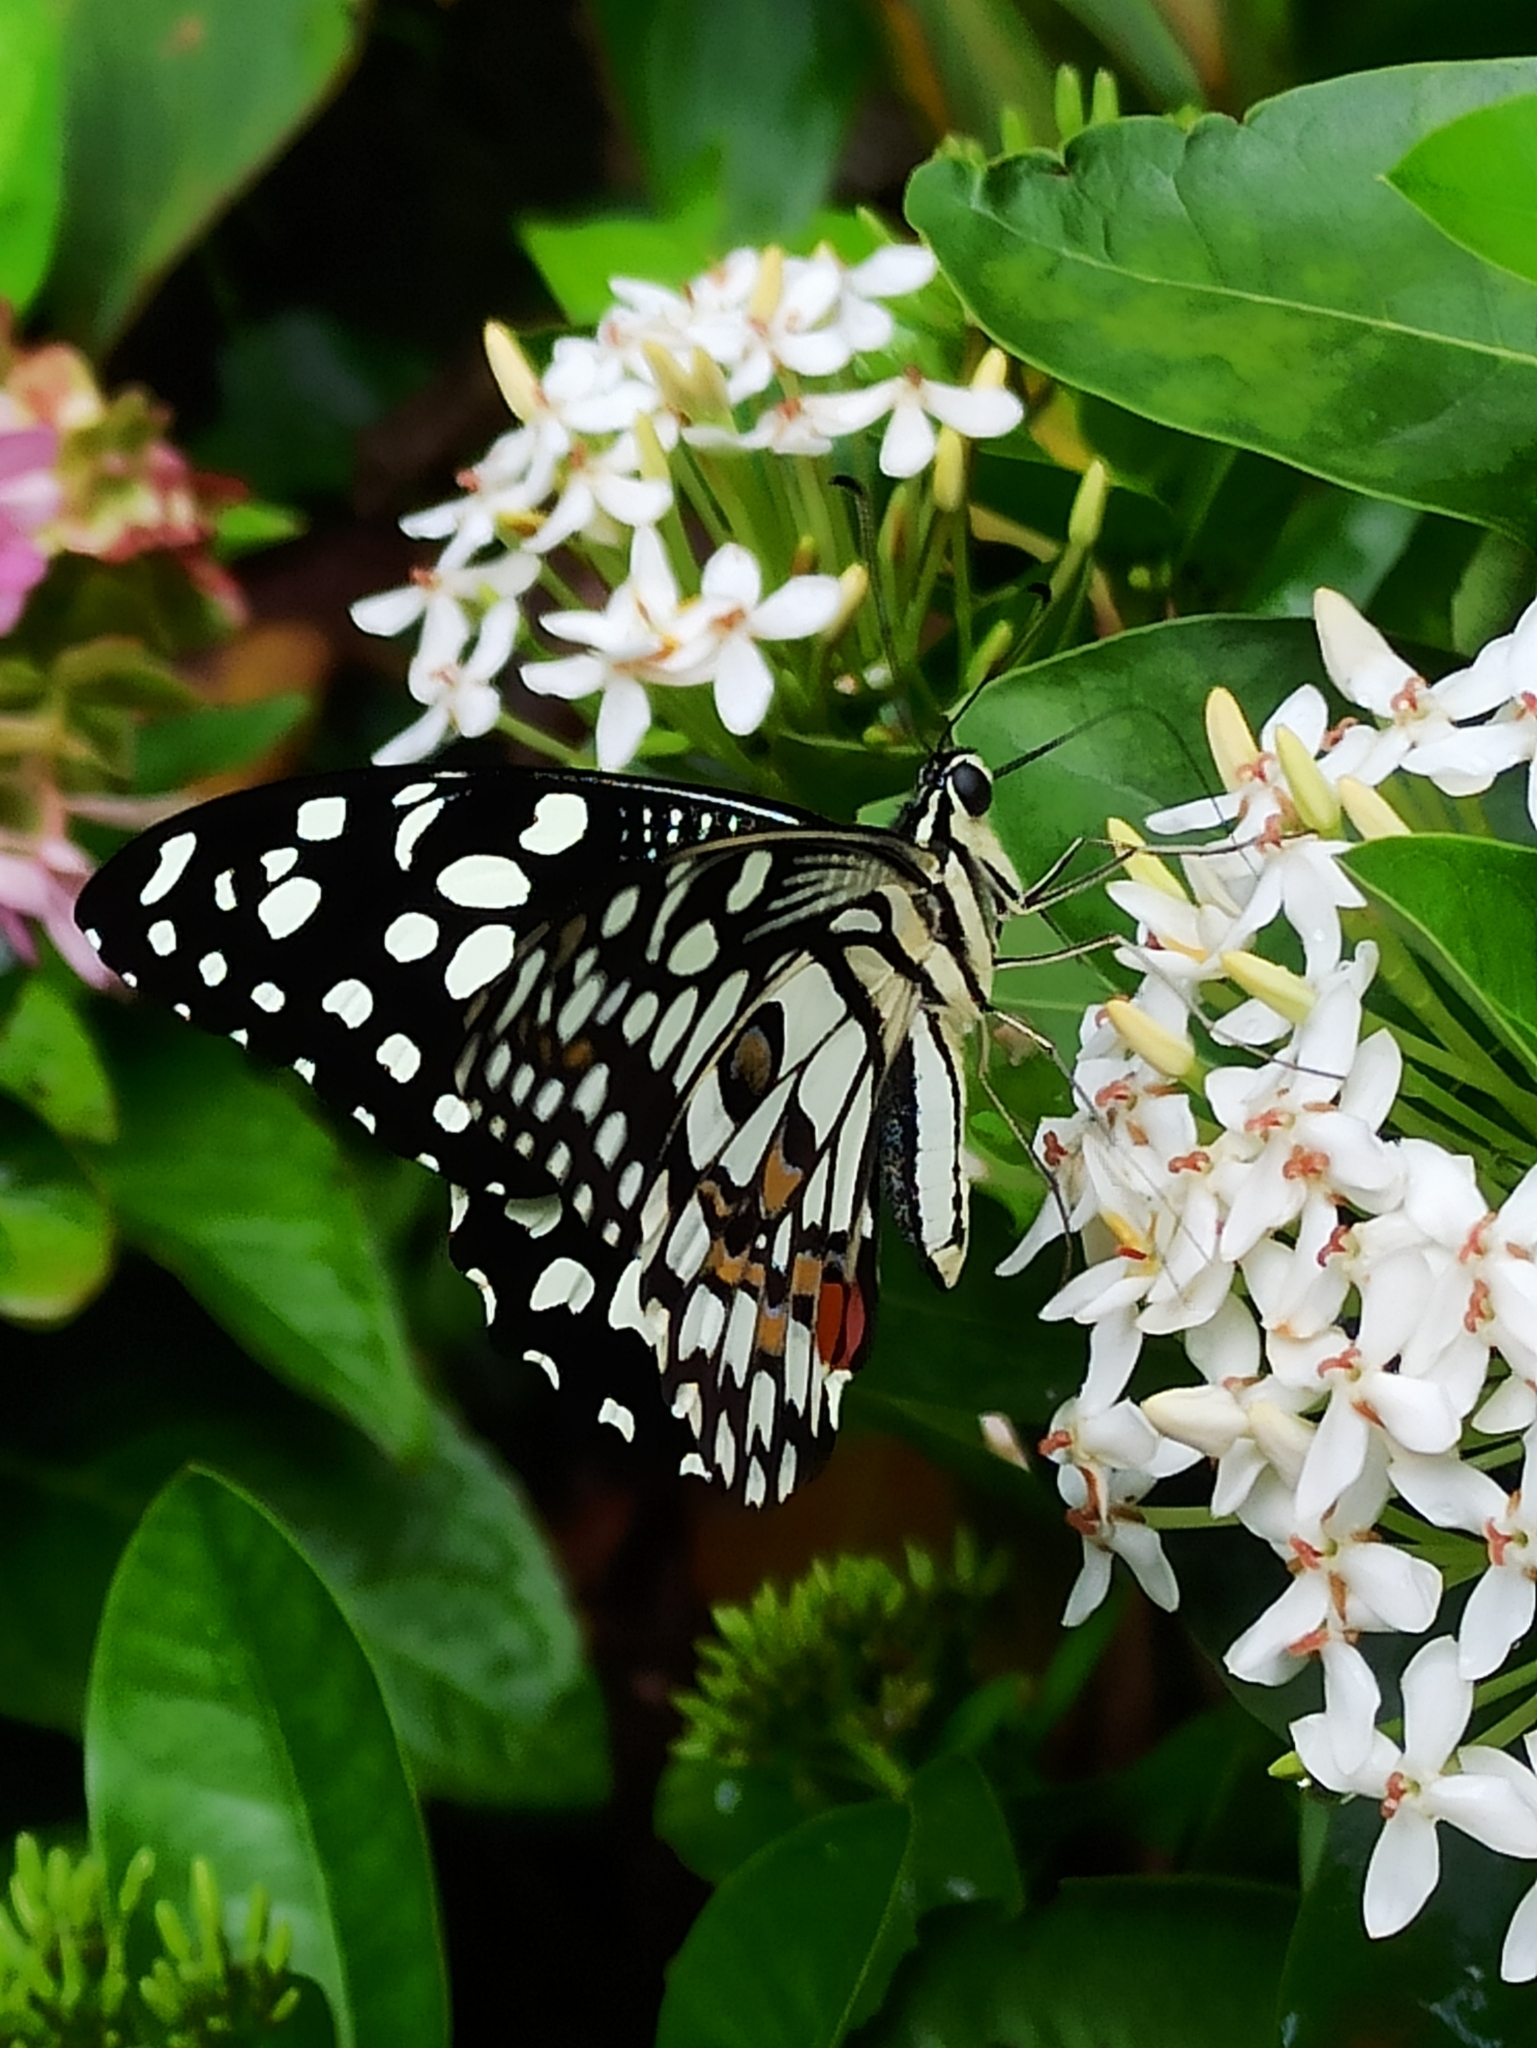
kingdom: Animalia
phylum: Arthropoda
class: Insecta
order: Lepidoptera
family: Papilionidae
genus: Papilio
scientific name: Papilio demoleus
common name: Lime butterfly
